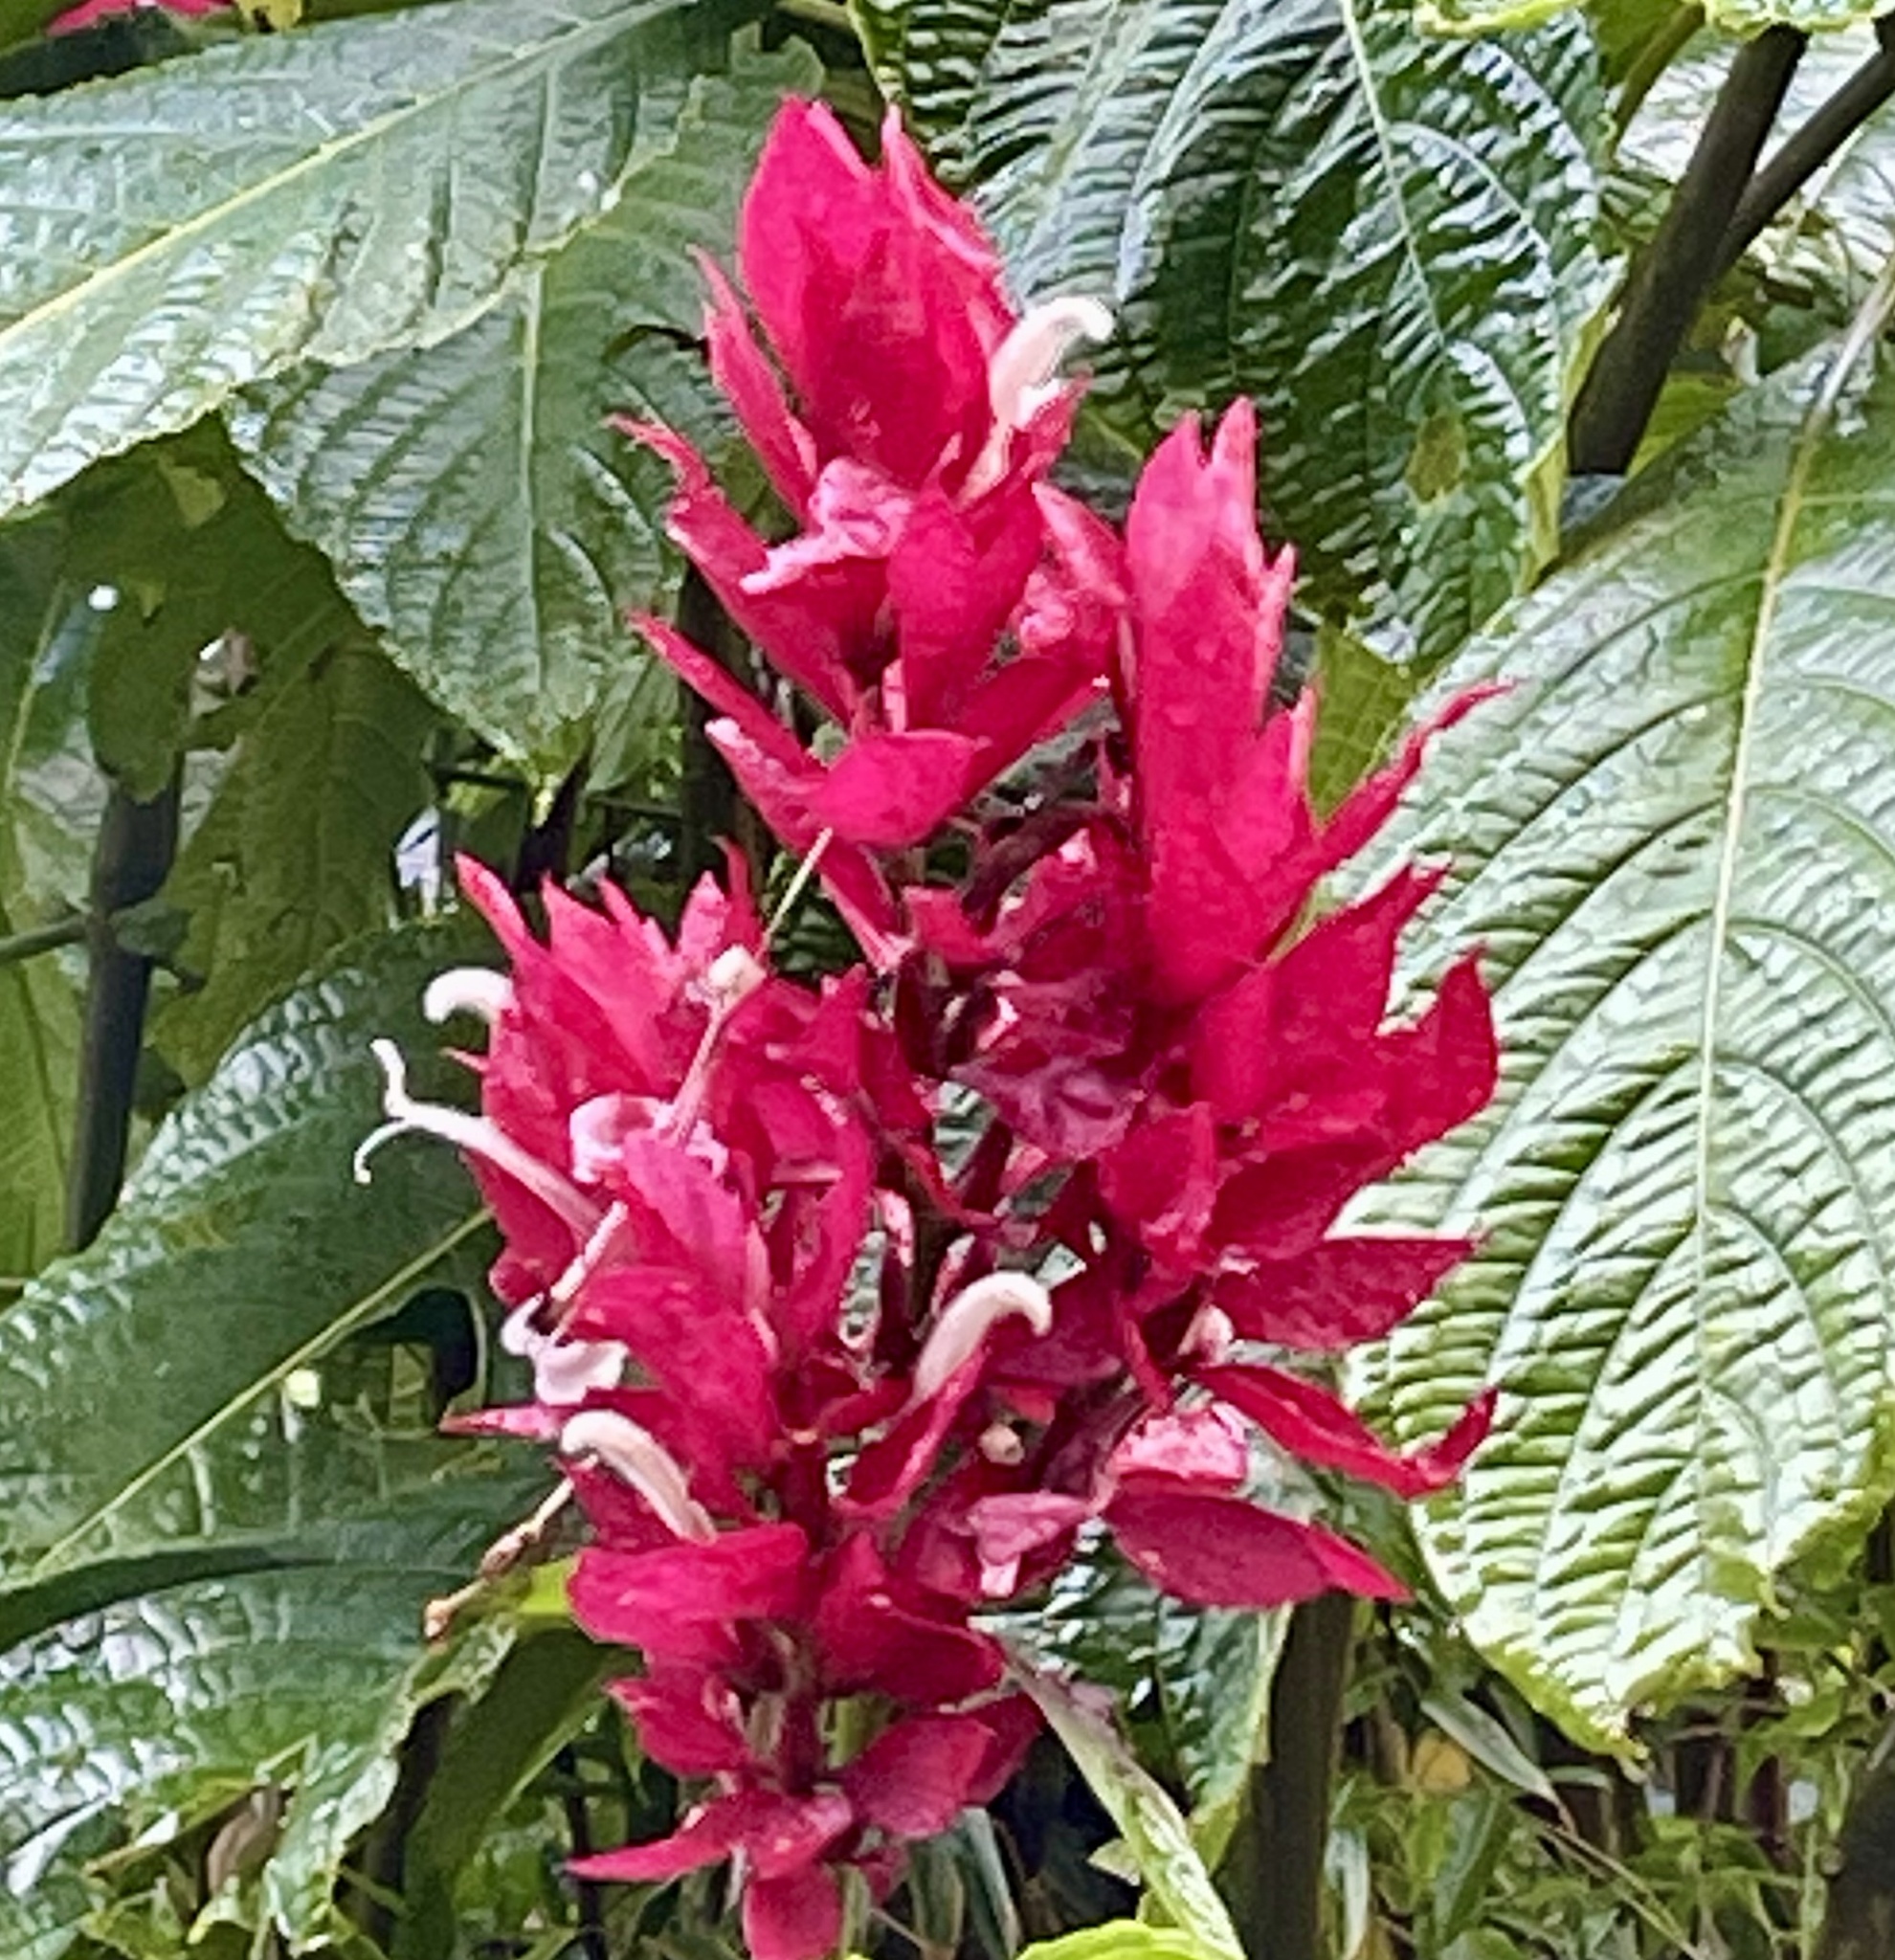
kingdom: Plantae
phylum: Tracheophyta
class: Magnoliopsida
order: Lamiales
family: Acanthaceae
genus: Megaskepasma
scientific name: Megaskepasma erythrochlamys
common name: Brazilian red-cloak
